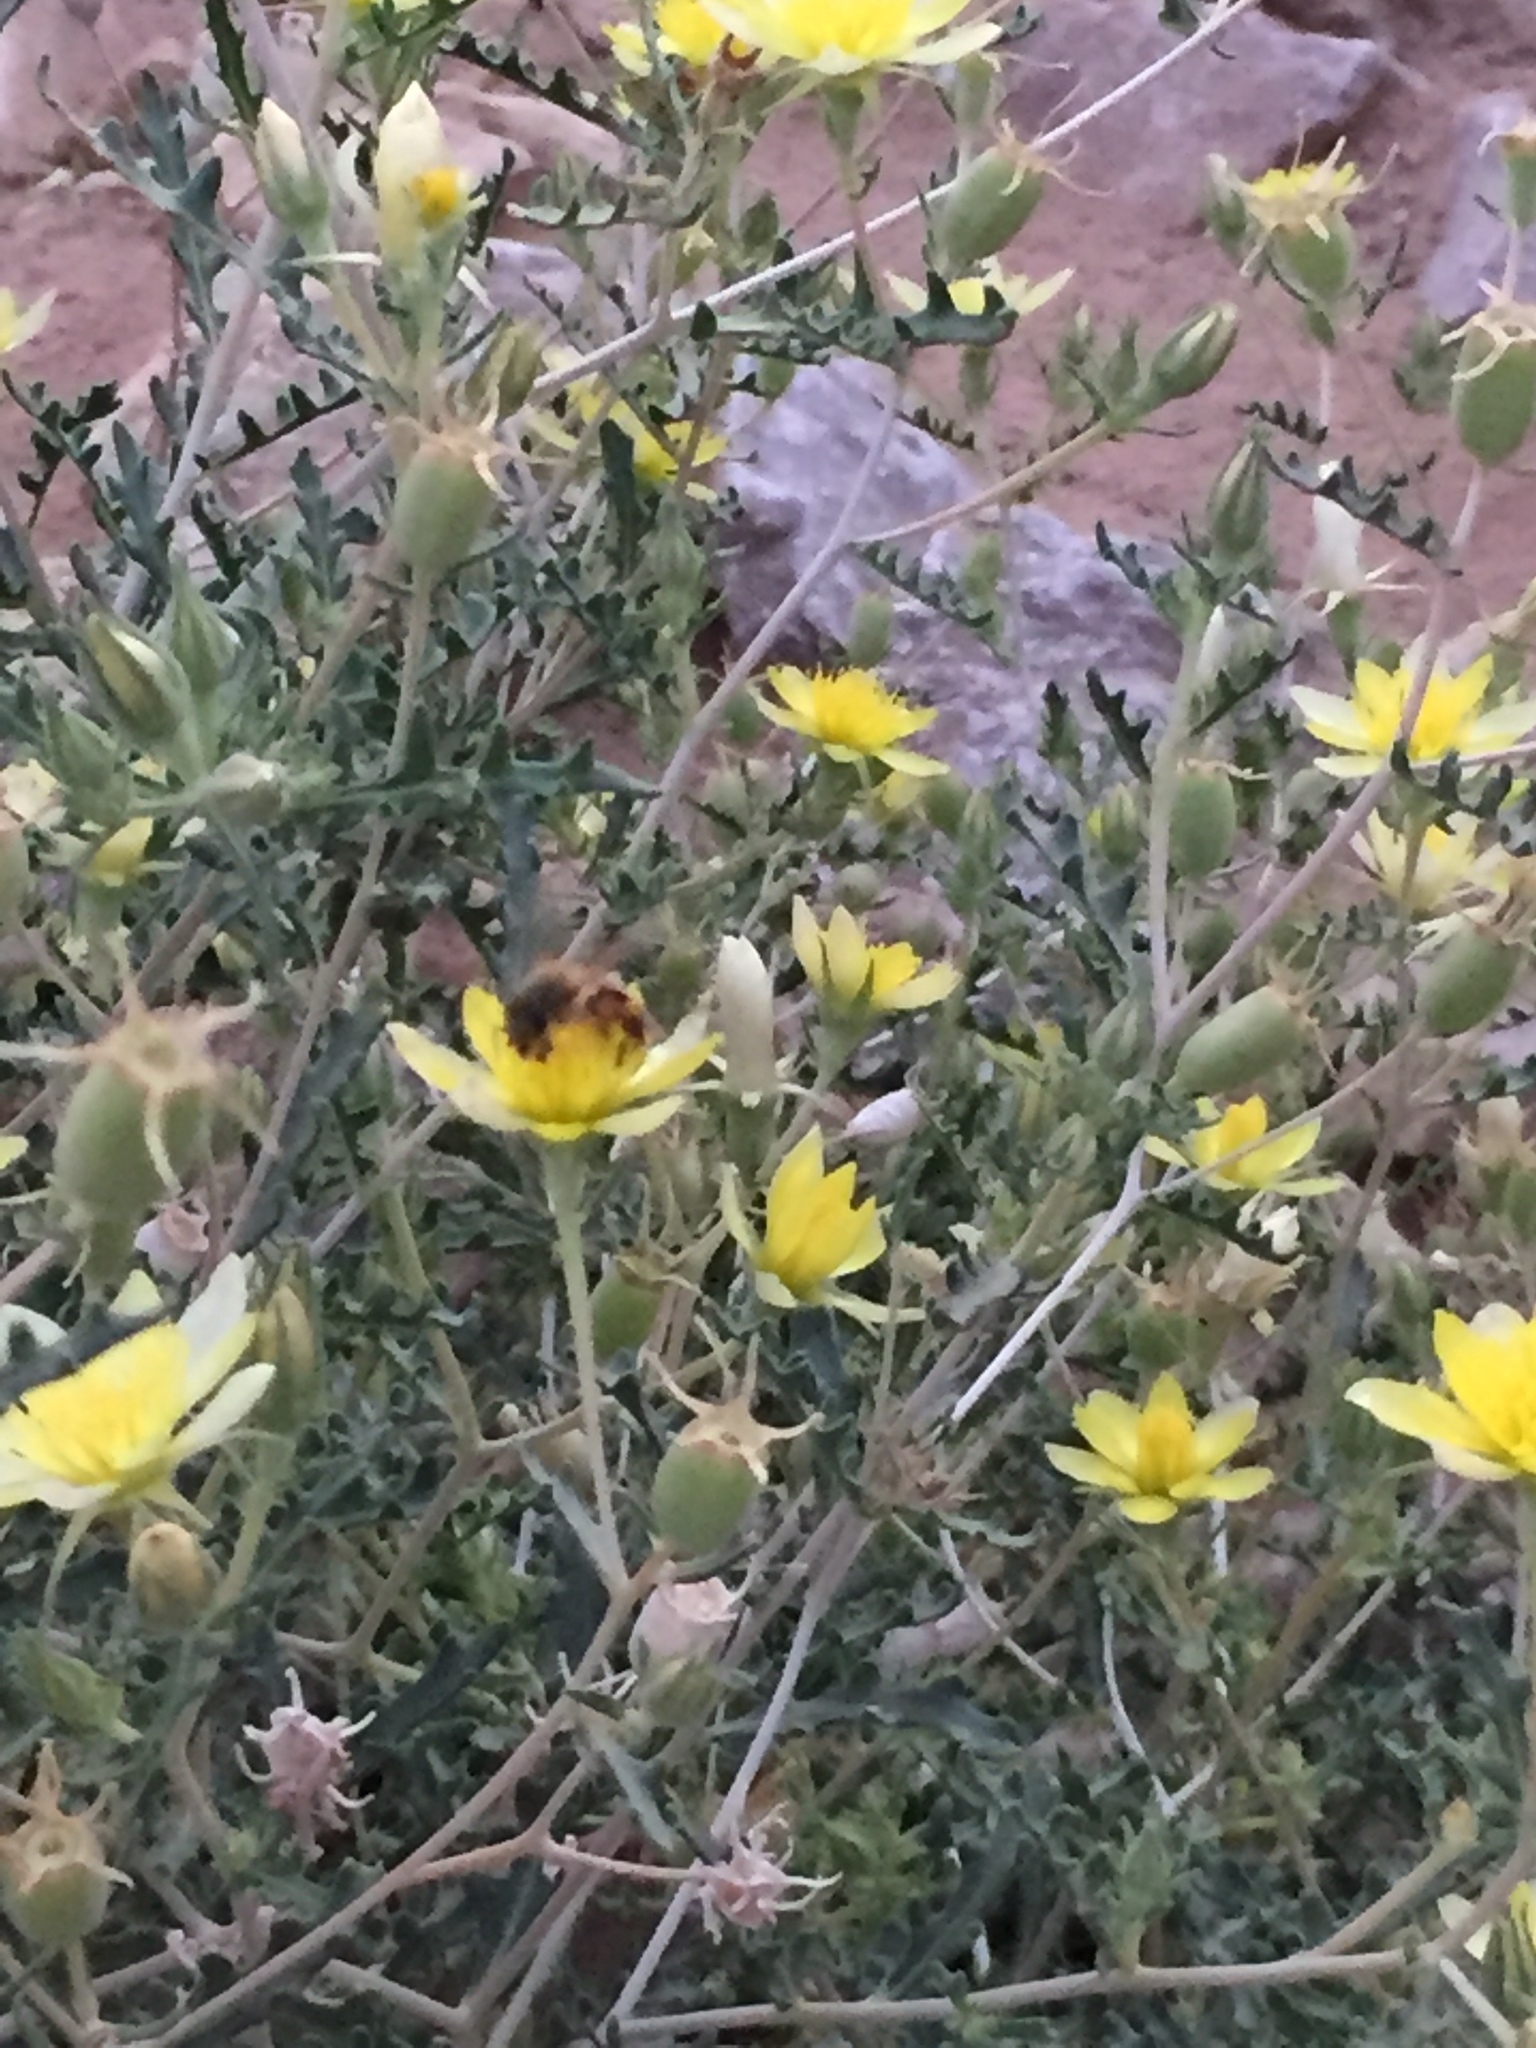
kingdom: Animalia
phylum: Arthropoda
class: Insecta
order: Hymenoptera
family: Apidae
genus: Apis
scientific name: Apis mellifera
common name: Honey bee
